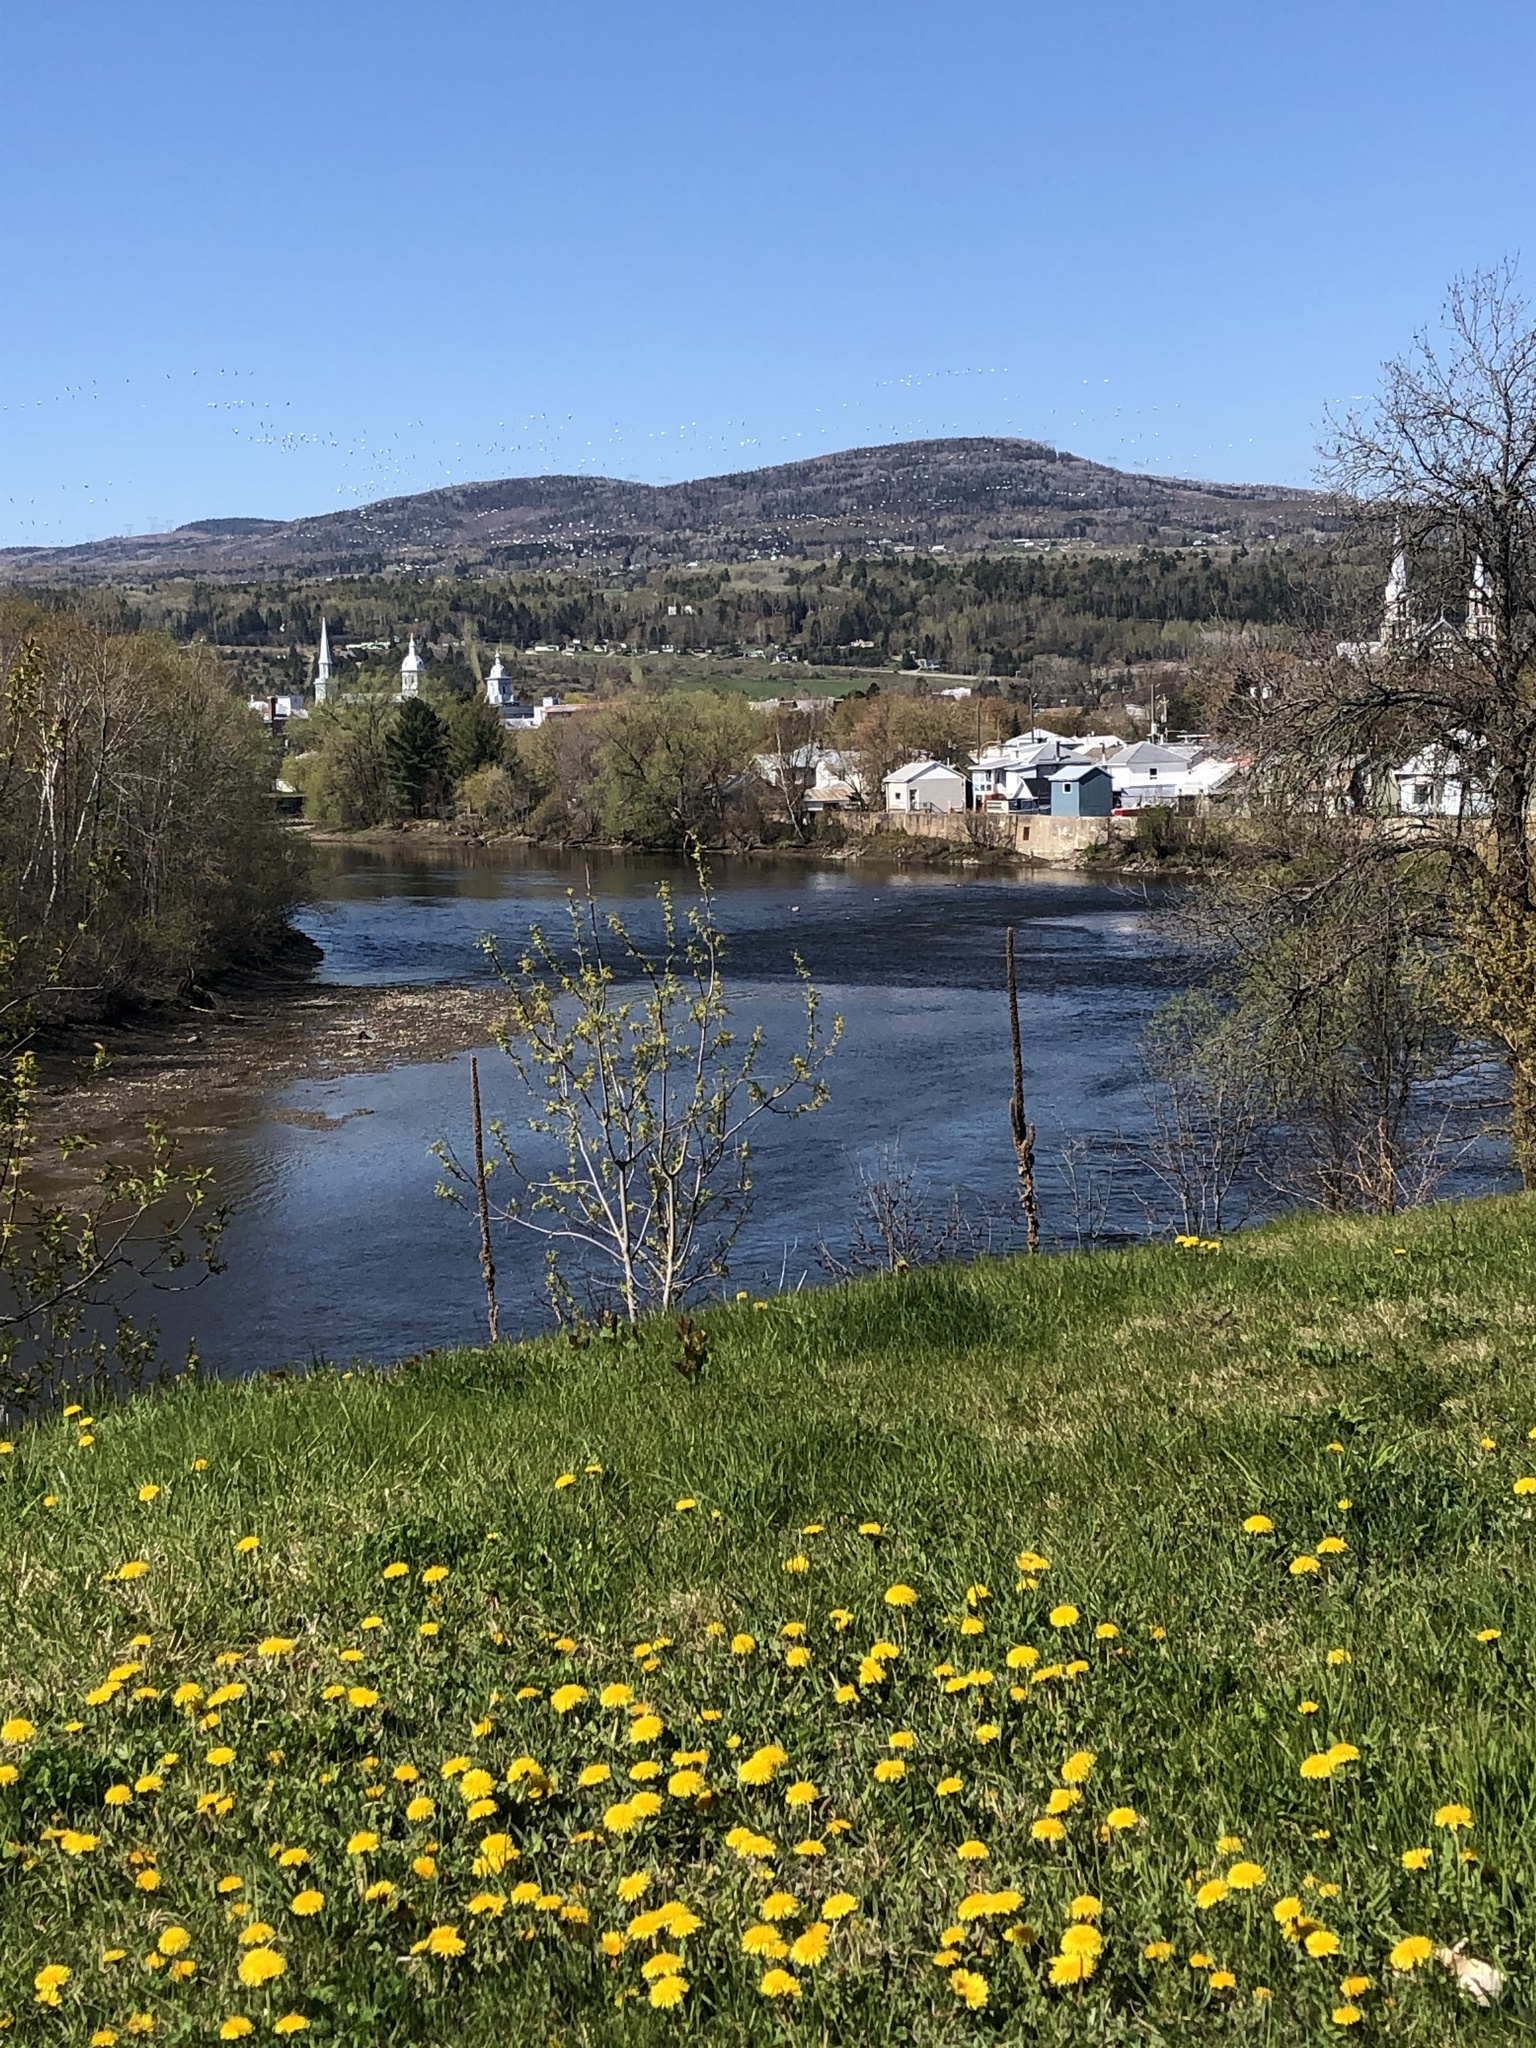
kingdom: Animalia
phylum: Chordata
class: Aves
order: Anseriformes
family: Anatidae
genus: Anser
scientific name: Anser caerulescens
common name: Snow goose
